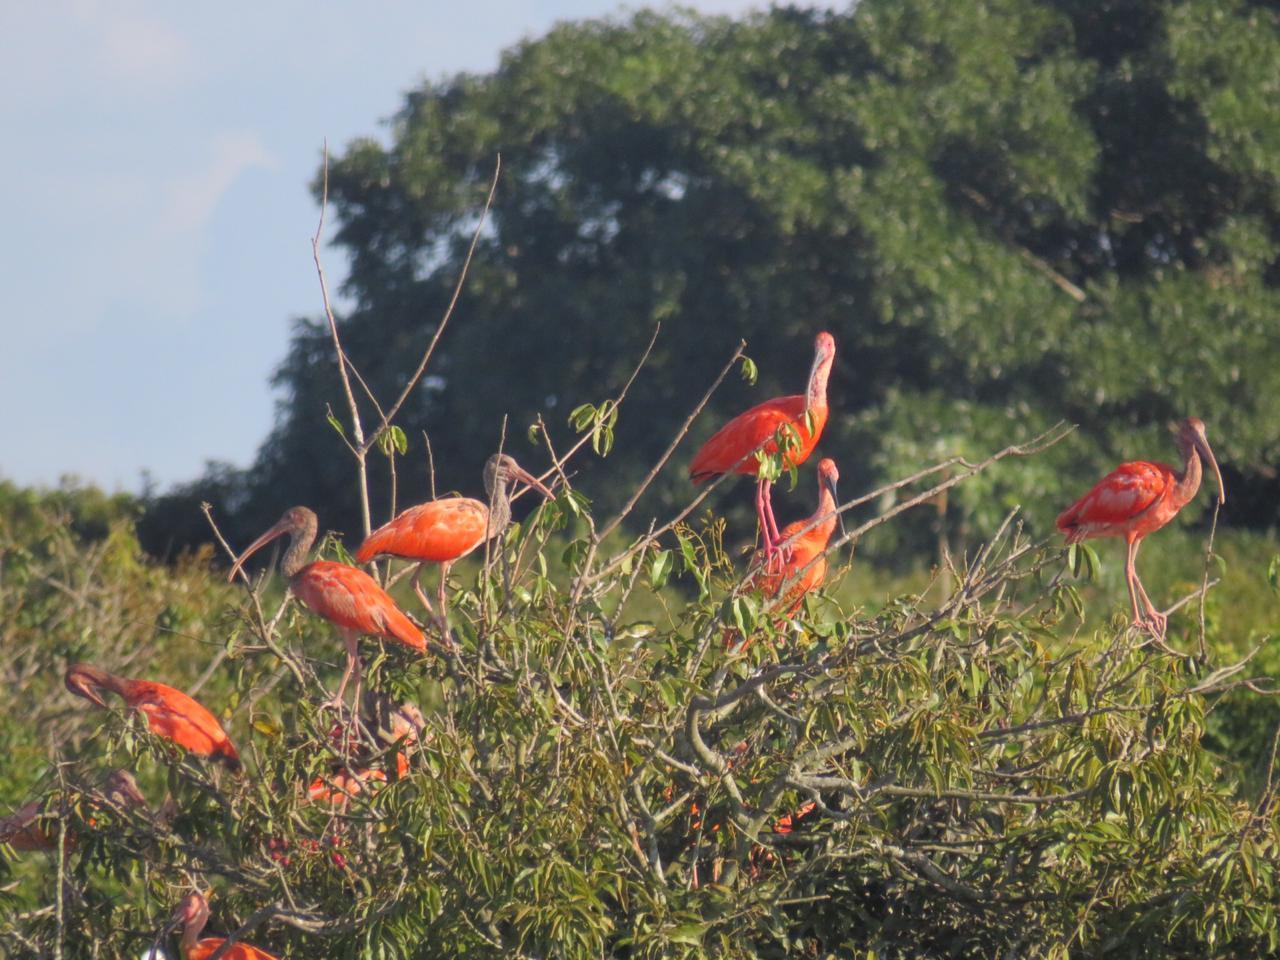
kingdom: Animalia
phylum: Chordata
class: Aves
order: Pelecaniformes
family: Threskiornithidae
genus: Eudocimus
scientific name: Eudocimus ruber
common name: Scarlet ibis
